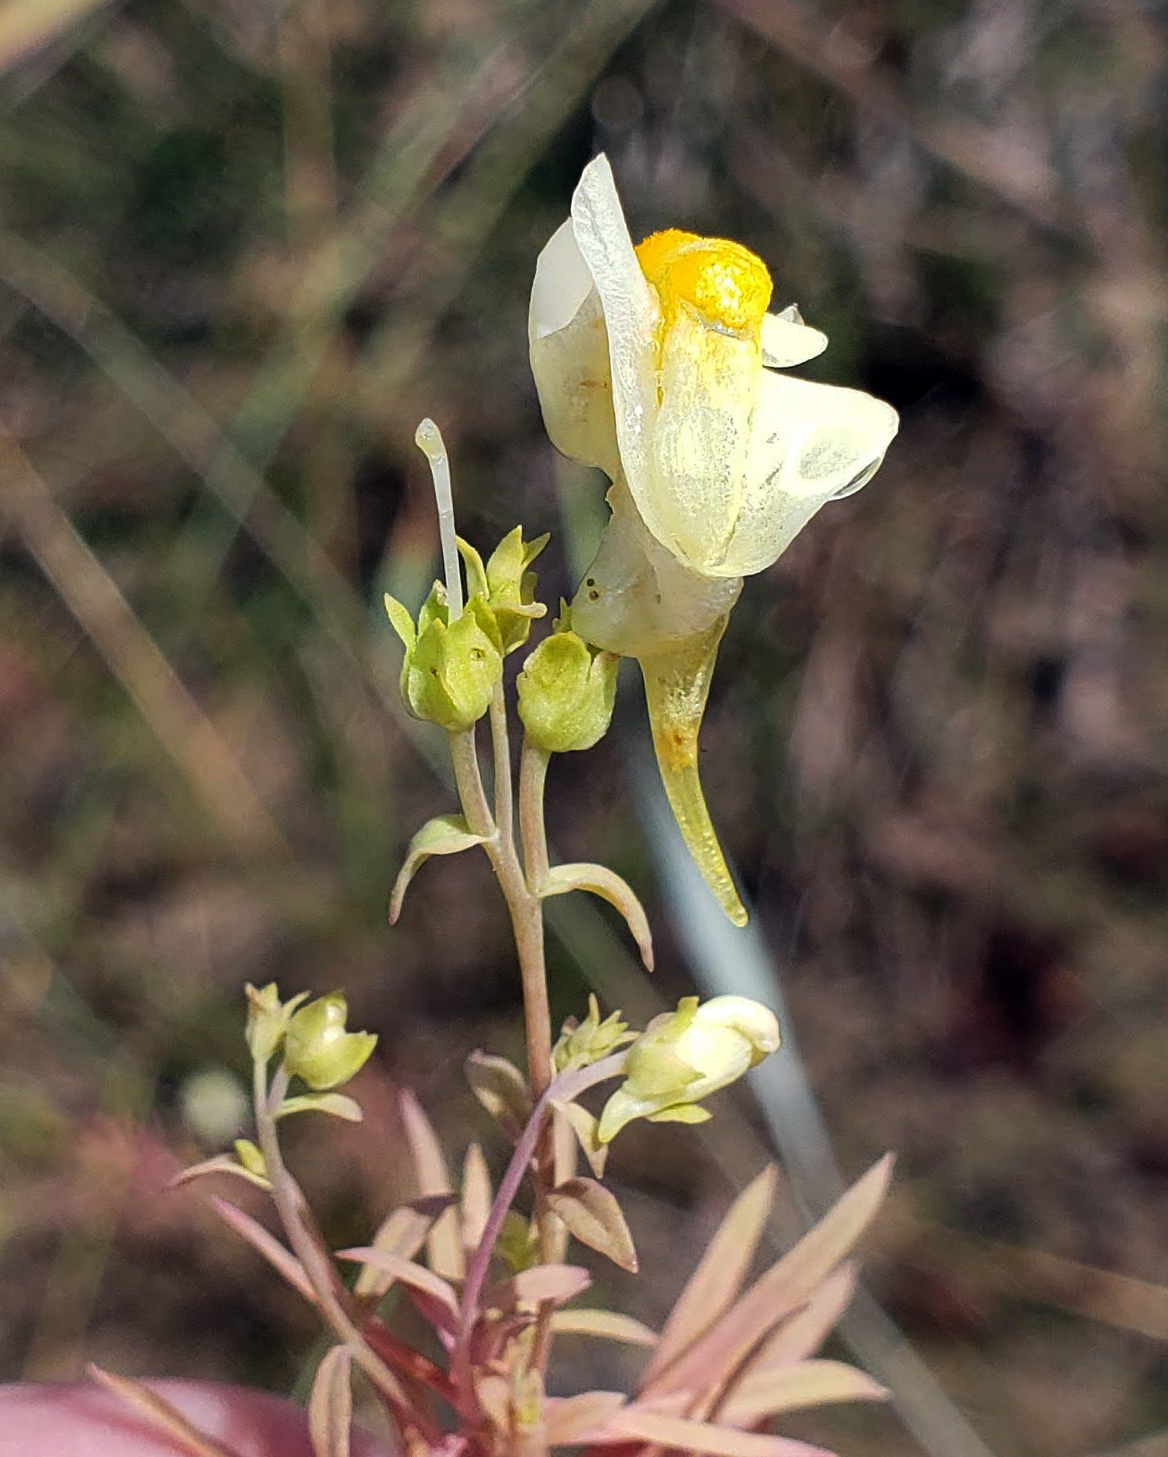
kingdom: Plantae
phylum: Tracheophyta
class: Magnoliopsida
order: Lamiales
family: Plantaginaceae
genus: Linaria
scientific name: Linaria vulgaris
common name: Butter and eggs
